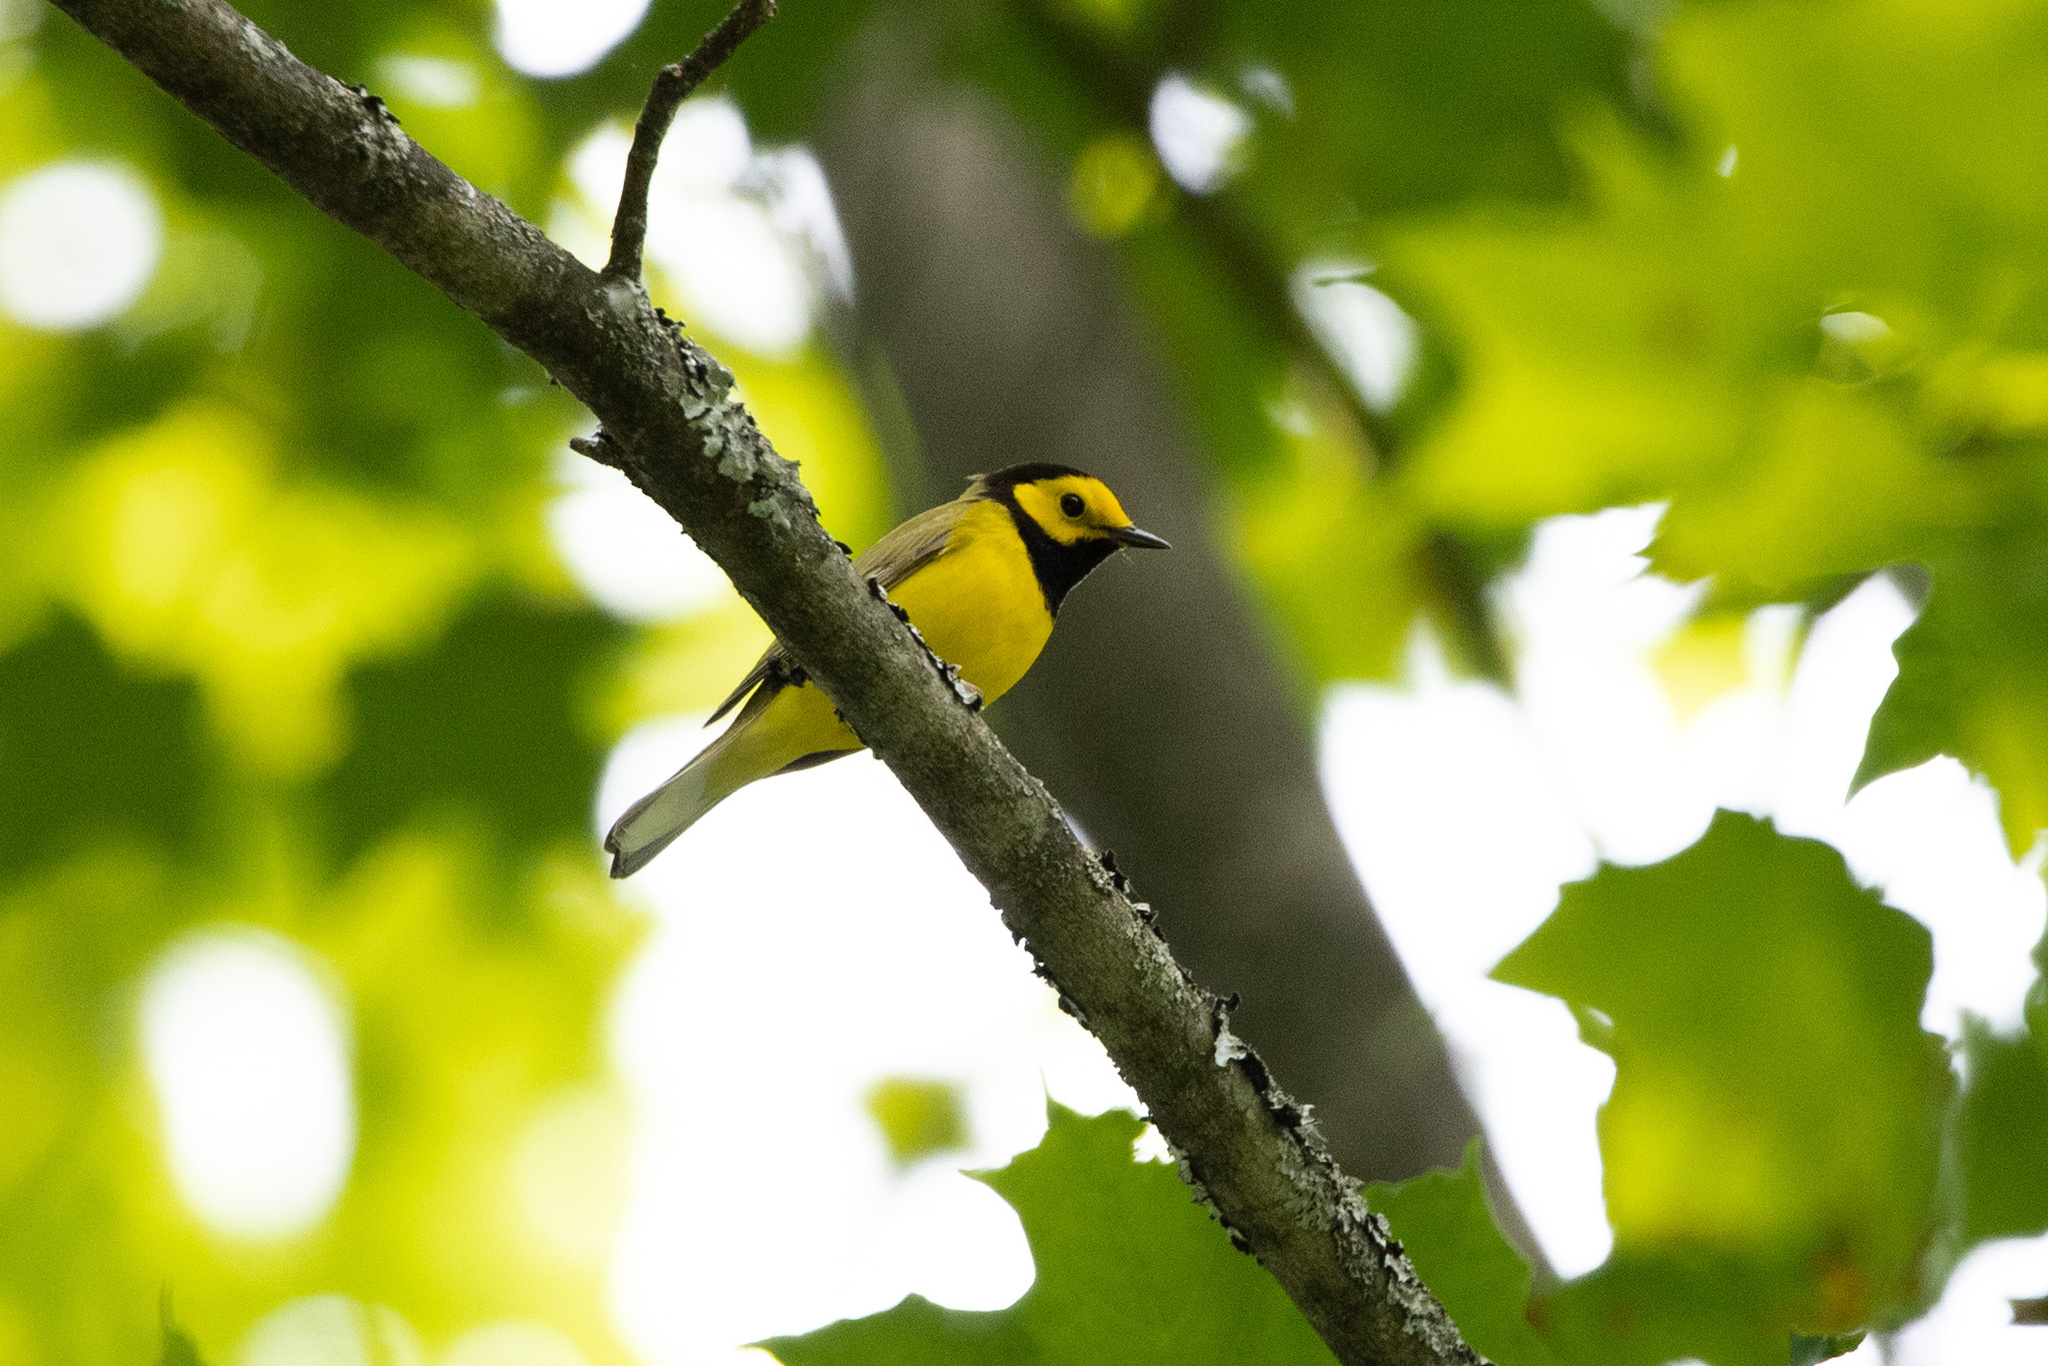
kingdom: Animalia
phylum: Chordata
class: Aves
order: Passeriformes
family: Parulidae
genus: Setophaga
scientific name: Setophaga citrina
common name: Hooded warbler
